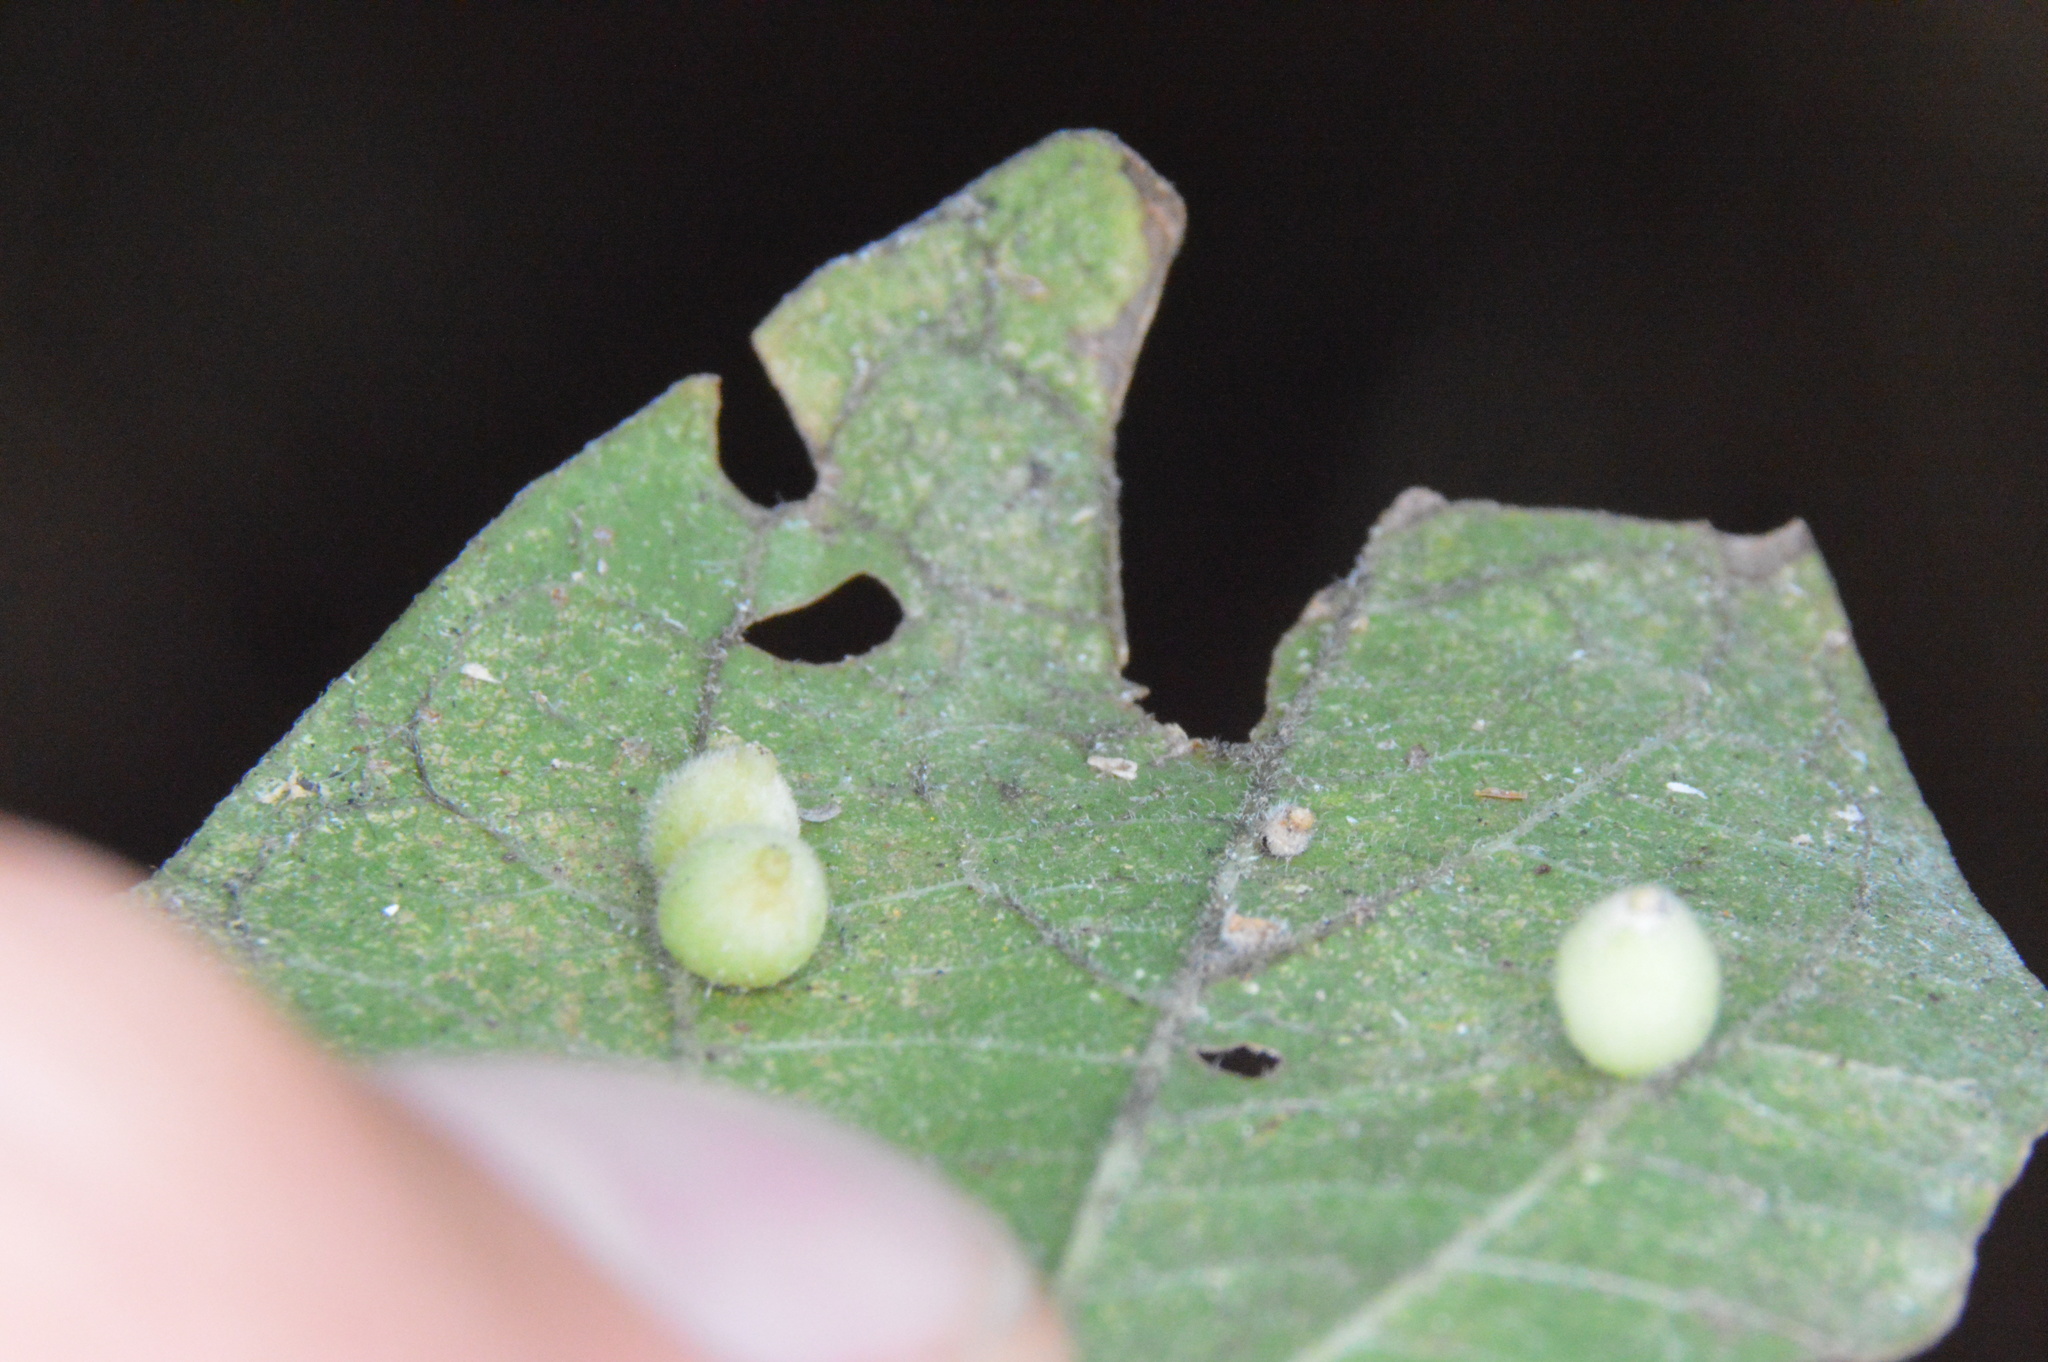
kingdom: Animalia
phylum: Arthropoda
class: Insecta
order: Diptera
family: Cecidomyiidae
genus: Celticecis
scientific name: Celticecis globosa
